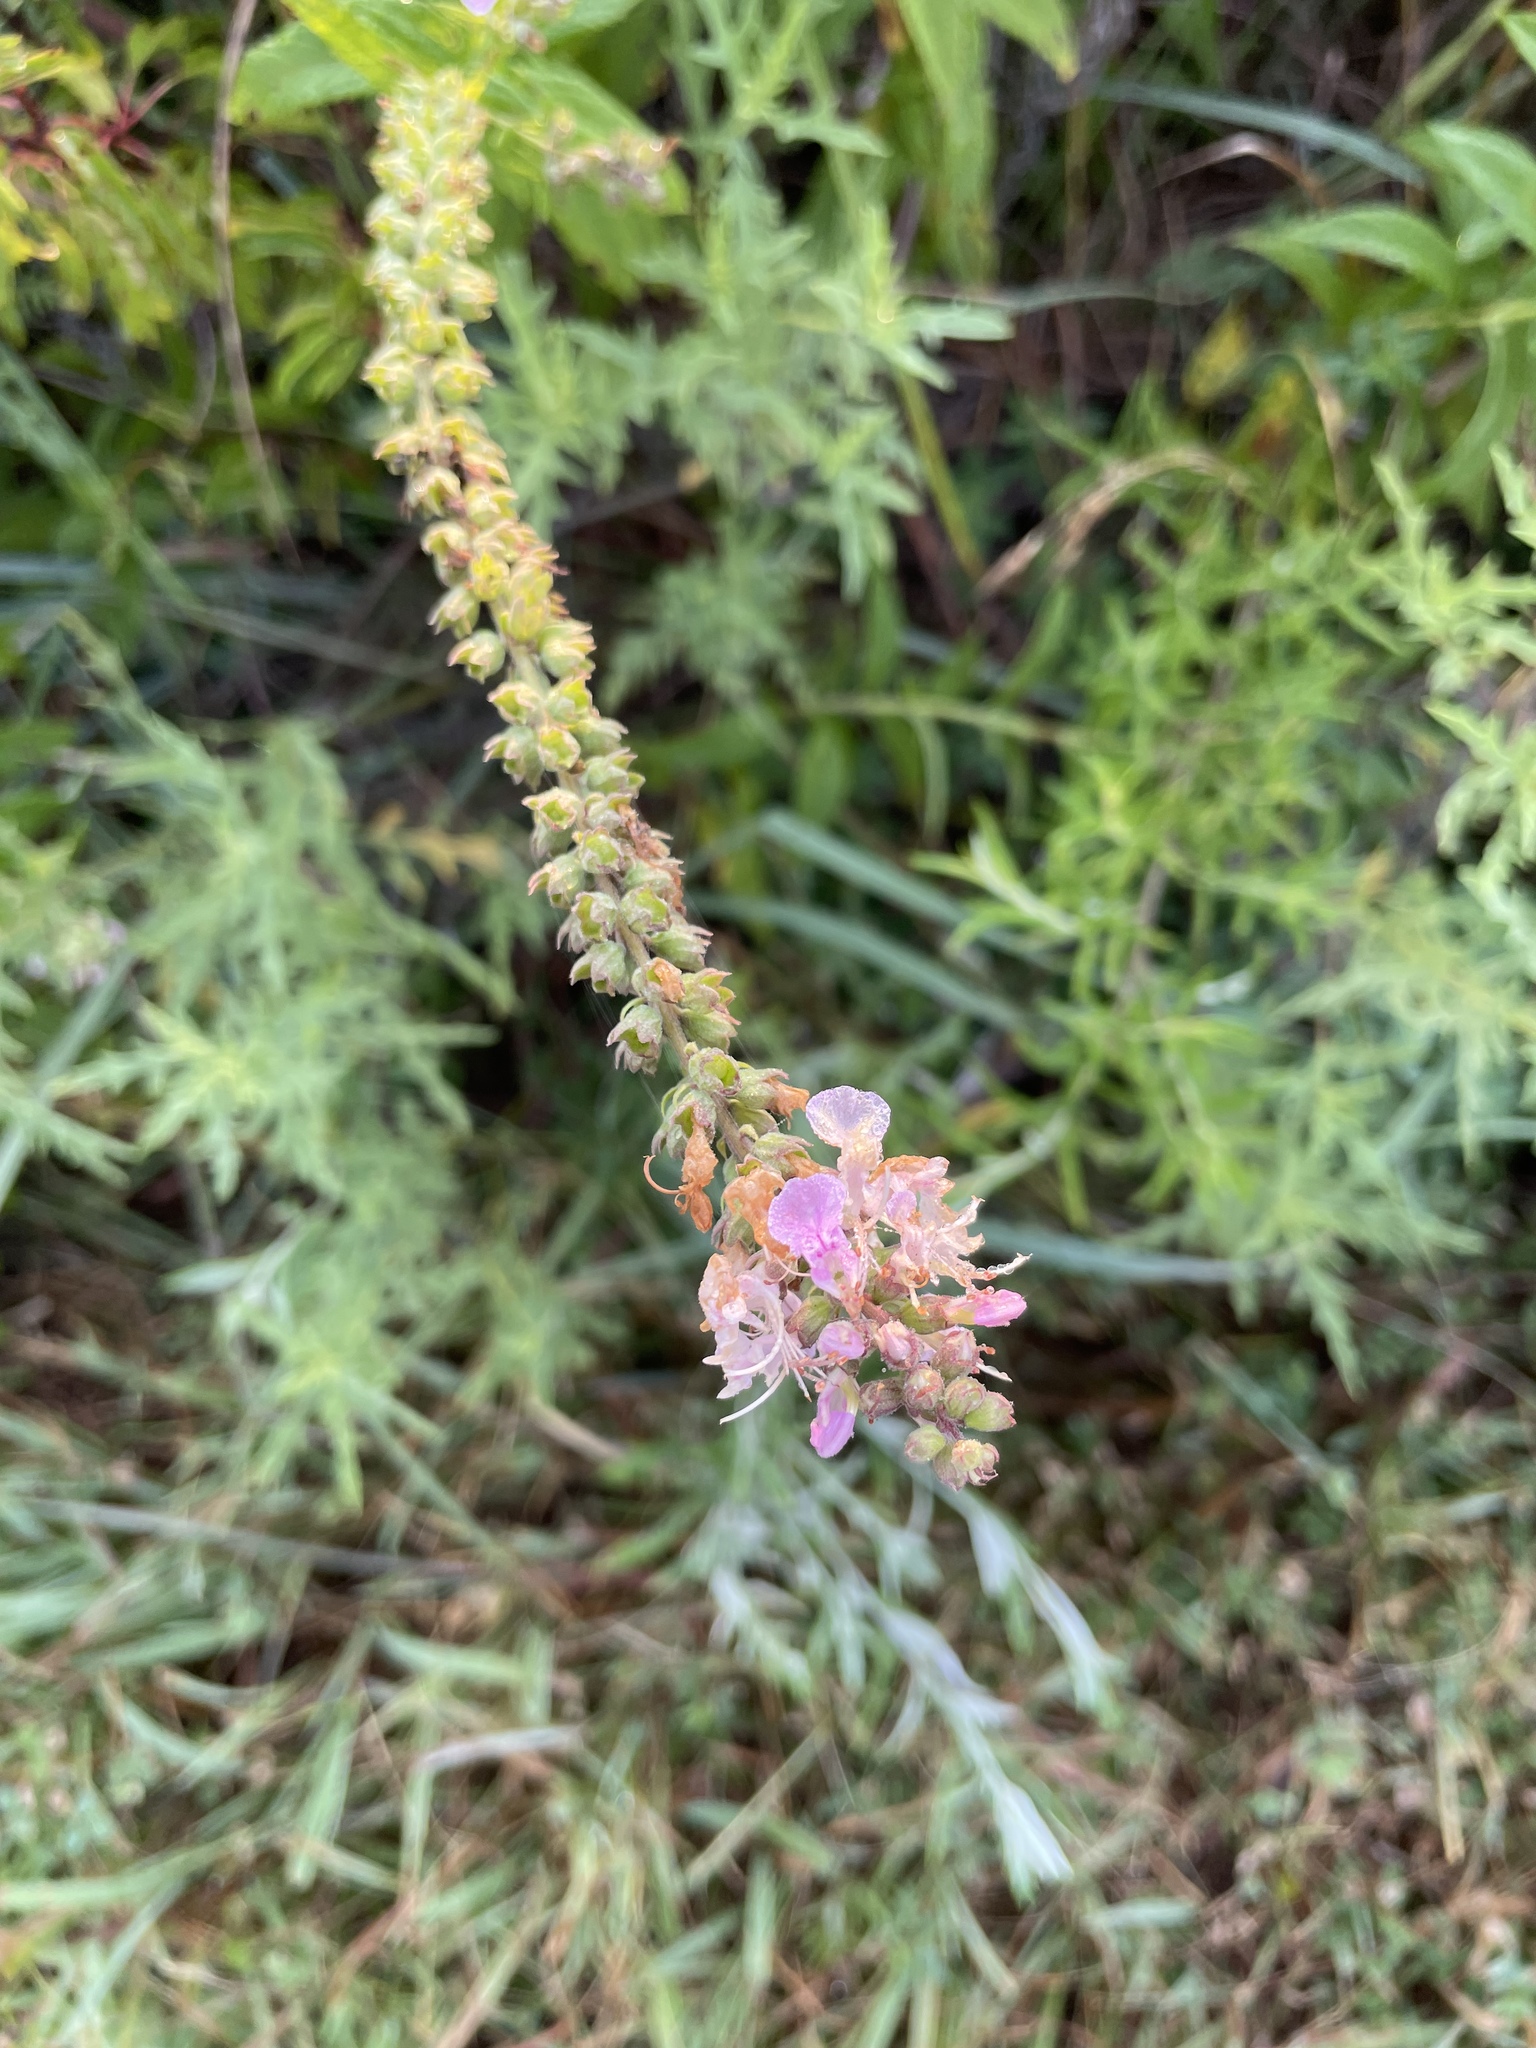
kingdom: Plantae
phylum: Tracheophyta
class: Magnoliopsida
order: Lamiales
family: Lamiaceae
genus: Teucrium
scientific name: Teucrium canadense
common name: American germander
